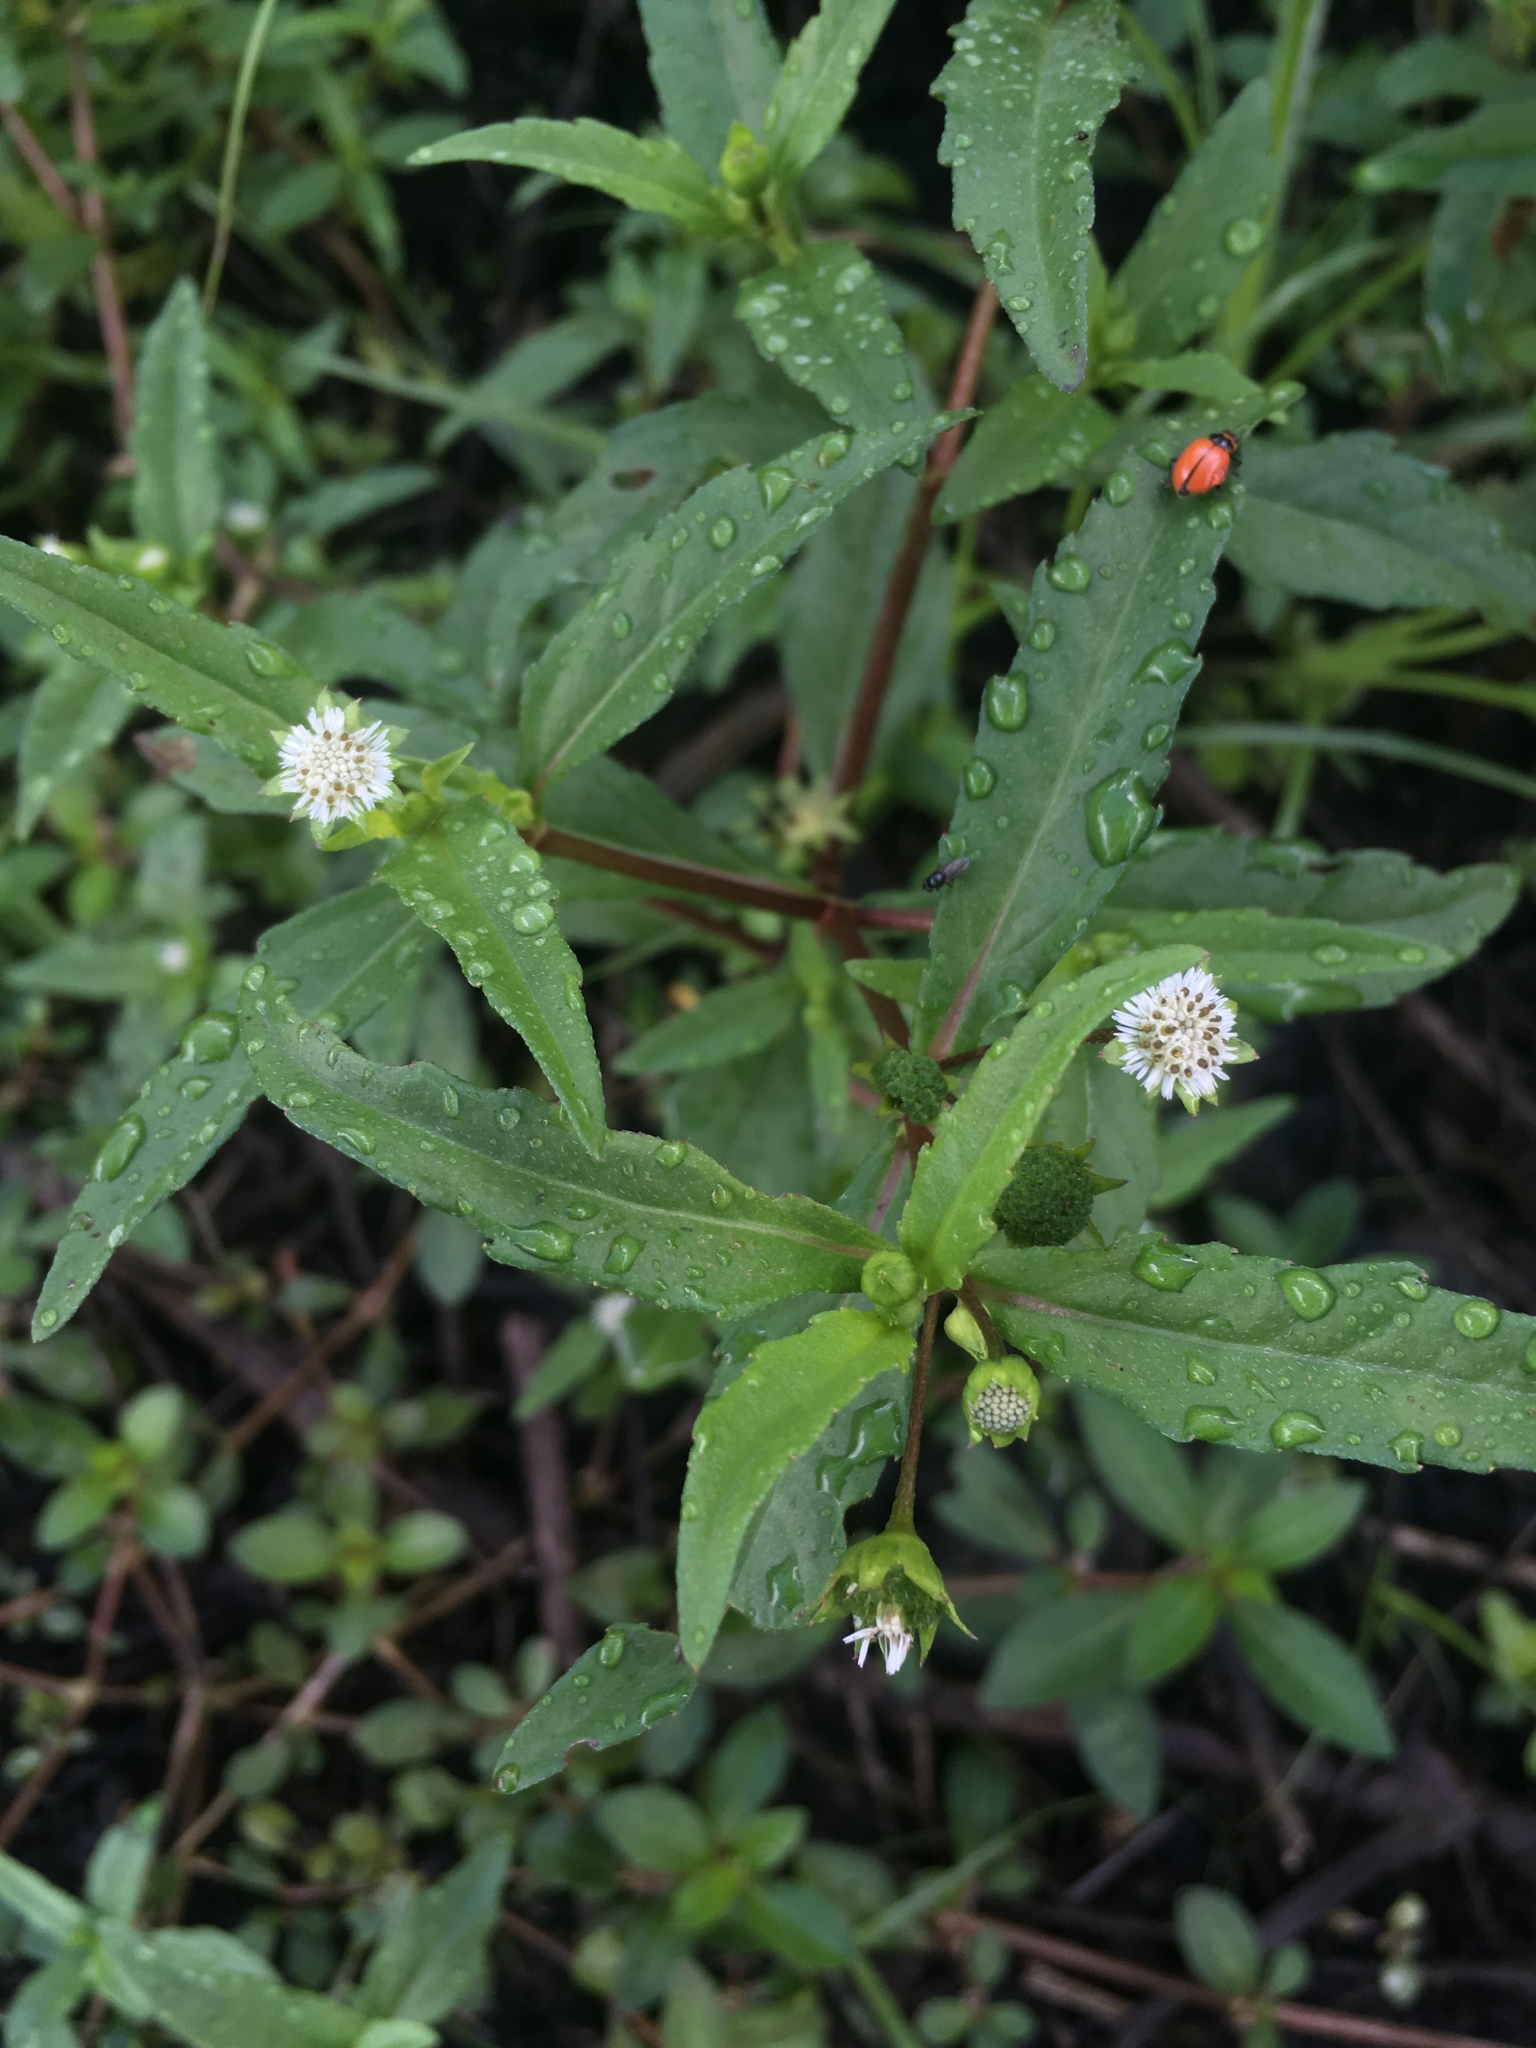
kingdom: Plantae
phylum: Tracheophyta
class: Magnoliopsida
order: Asterales
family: Asteraceae
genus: Eclipta
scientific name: Eclipta prostrata
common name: False daisy
